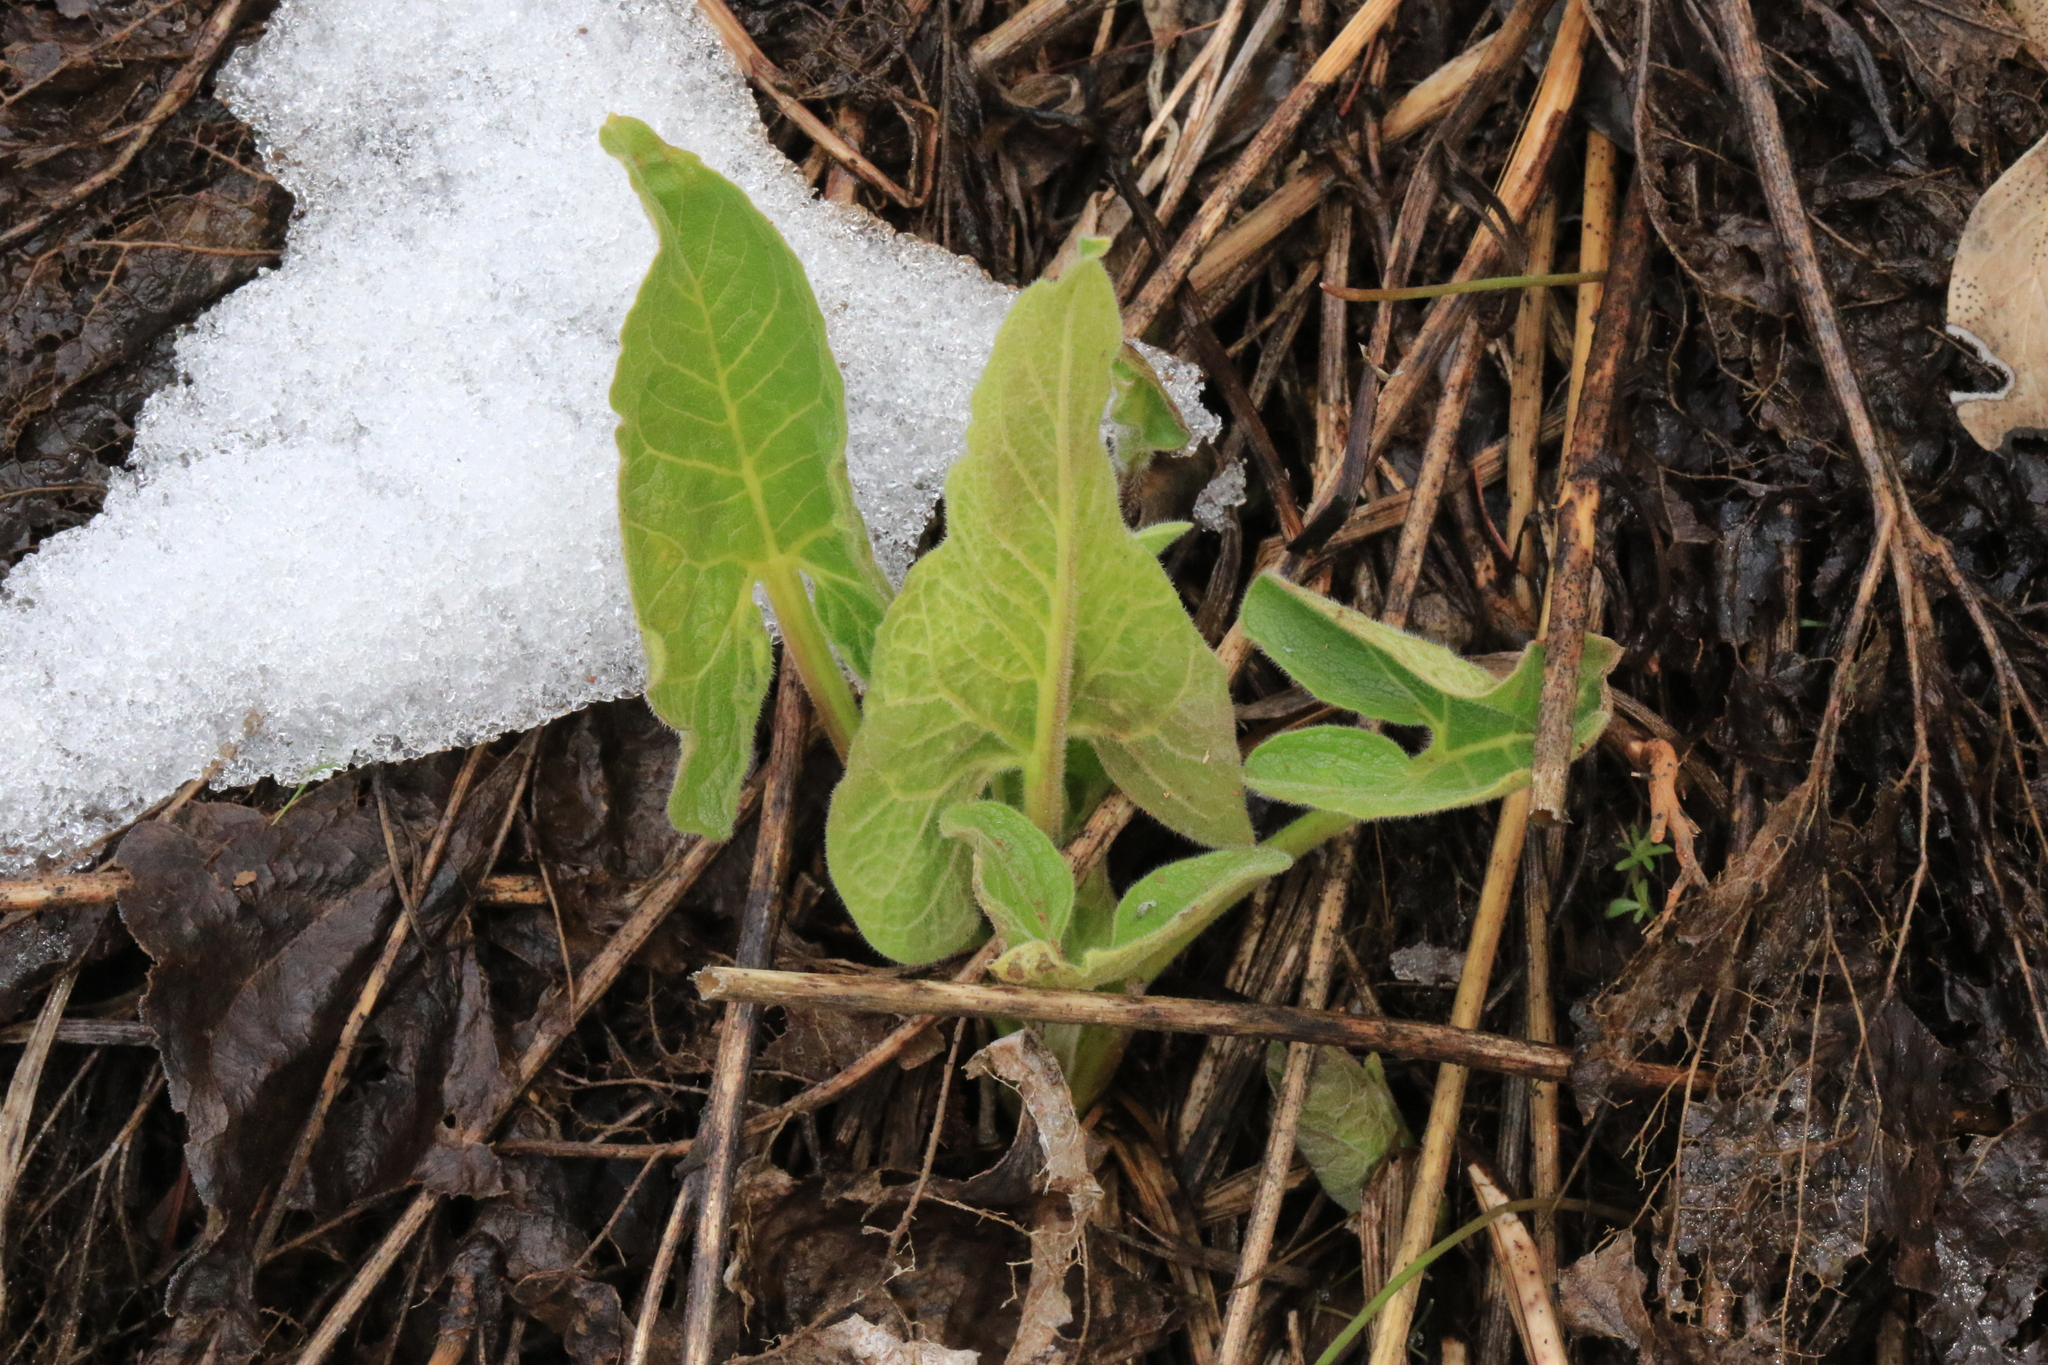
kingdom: Plantae
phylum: Tracheophyta
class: Magnoliopsida
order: Asterales
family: Asteraceae
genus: Balsamorhiza
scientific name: Balsamorhiza deltoidea
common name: Deltoid balsamroot
